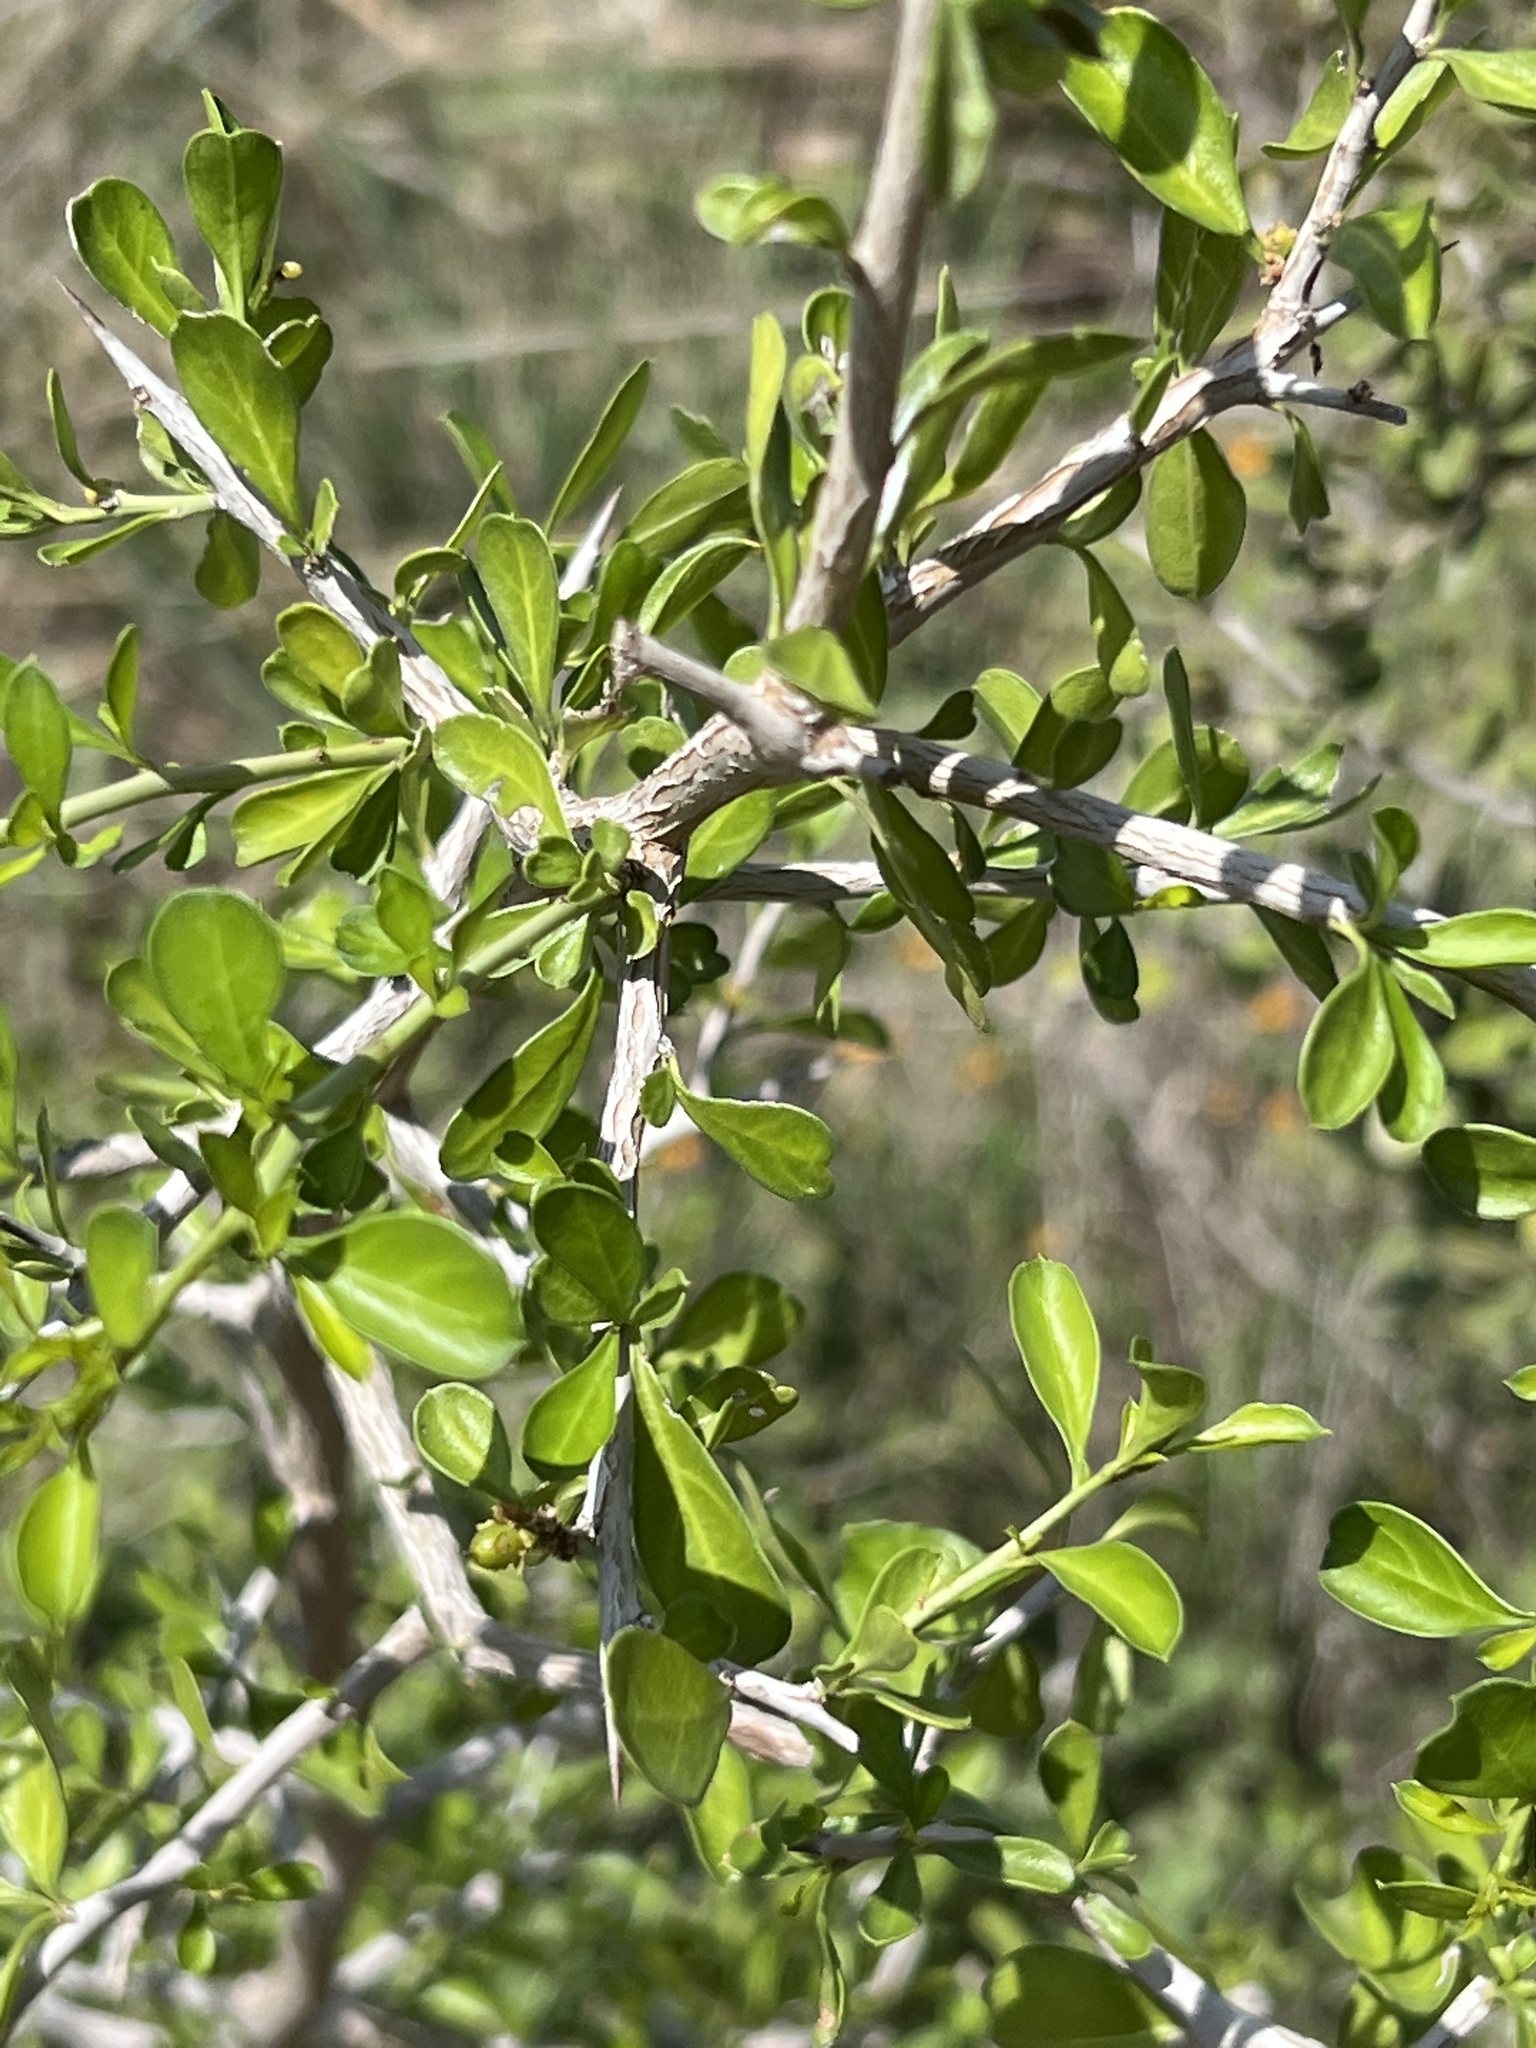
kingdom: Plantae
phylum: Tracheophyta
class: Magnoliopsida
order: Rosales
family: Rhamnaceae
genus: Condalia
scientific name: Condalia hookeri
